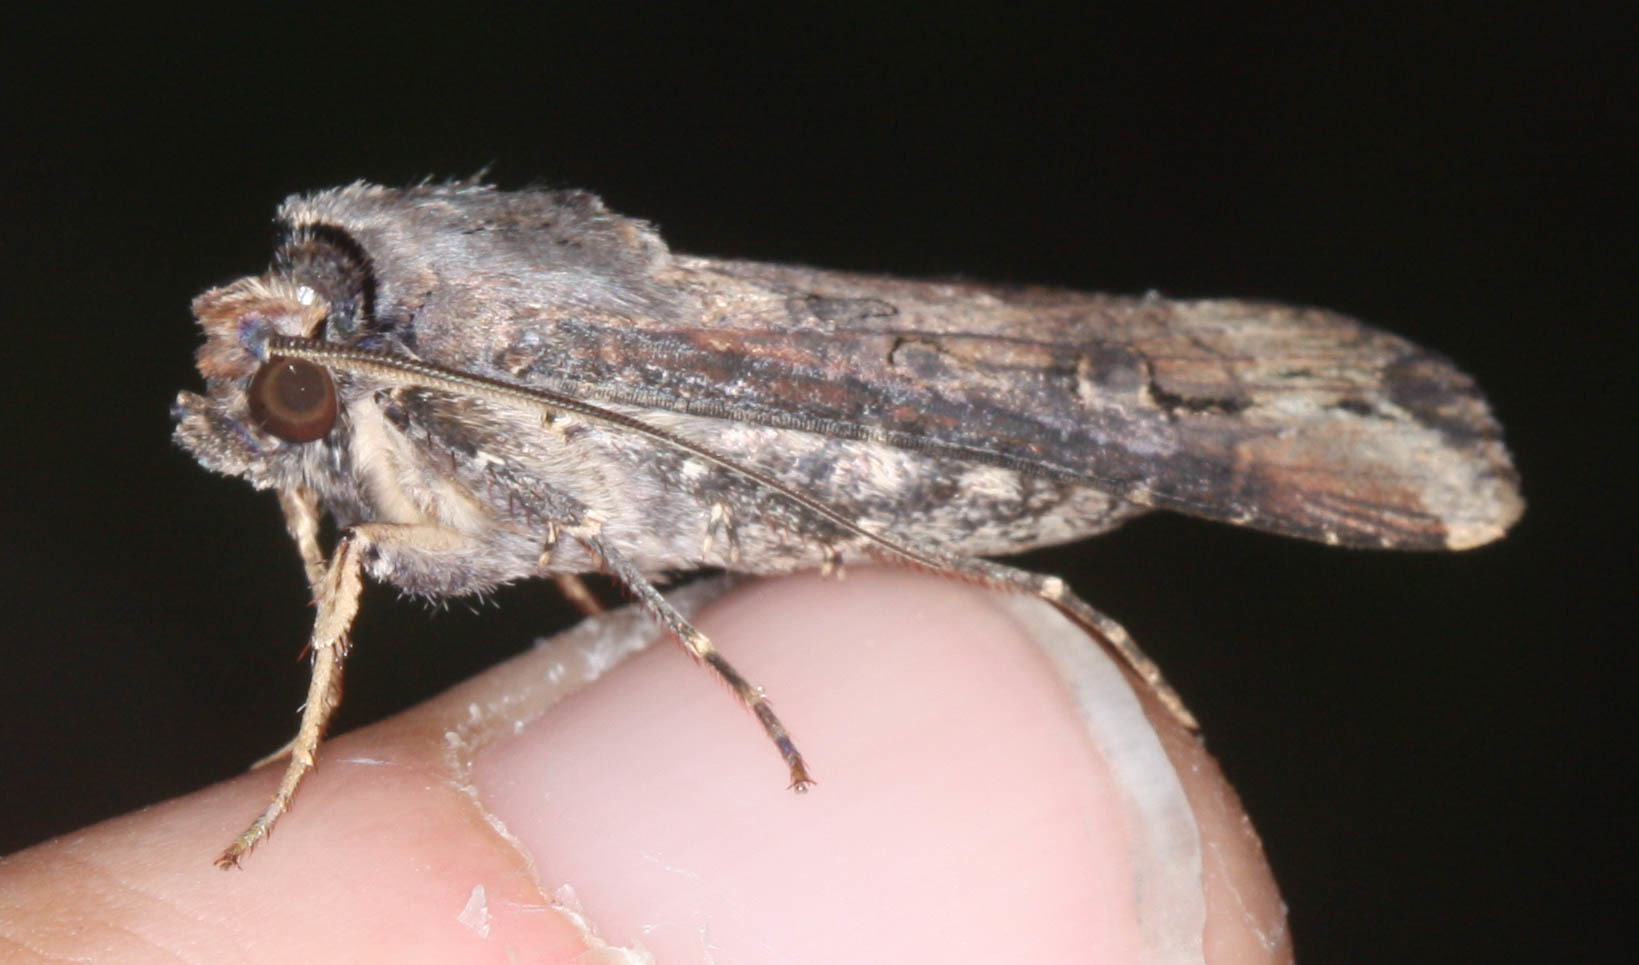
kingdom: Animalia
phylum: Arthropoda
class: Insecta
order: Lepidoptera
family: Noctuidae
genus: Agrotis
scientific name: Agrotis ipsilon
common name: Dark sword-grass
